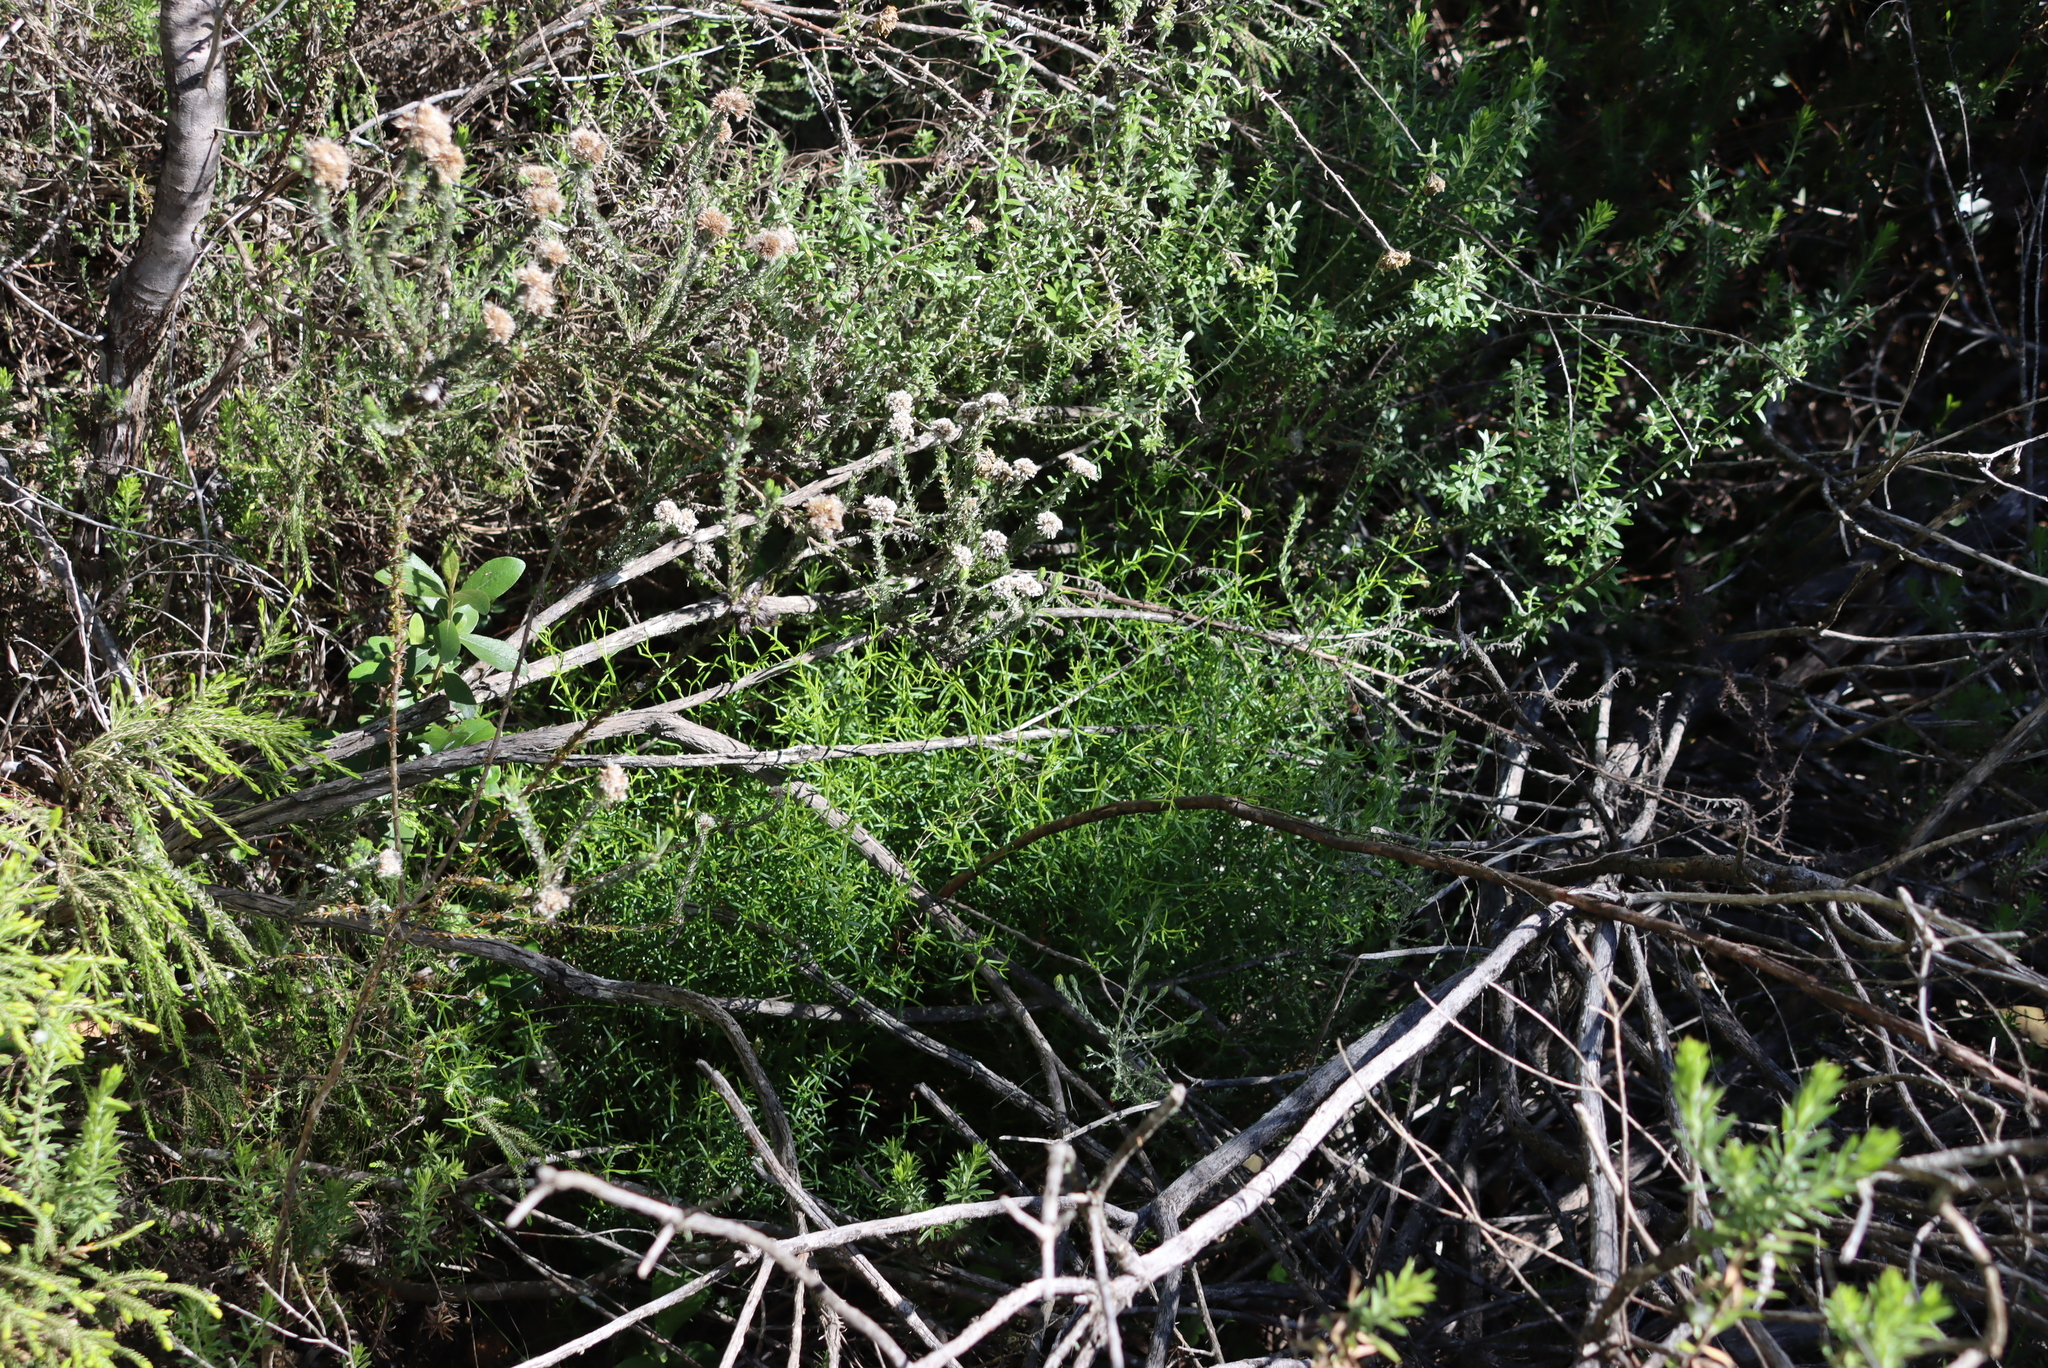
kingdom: Plantae
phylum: Tracheophyta
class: Magnoliopsida
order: Gentianales
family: Gentianaceae
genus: Chironia
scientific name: Chironia baccifera
